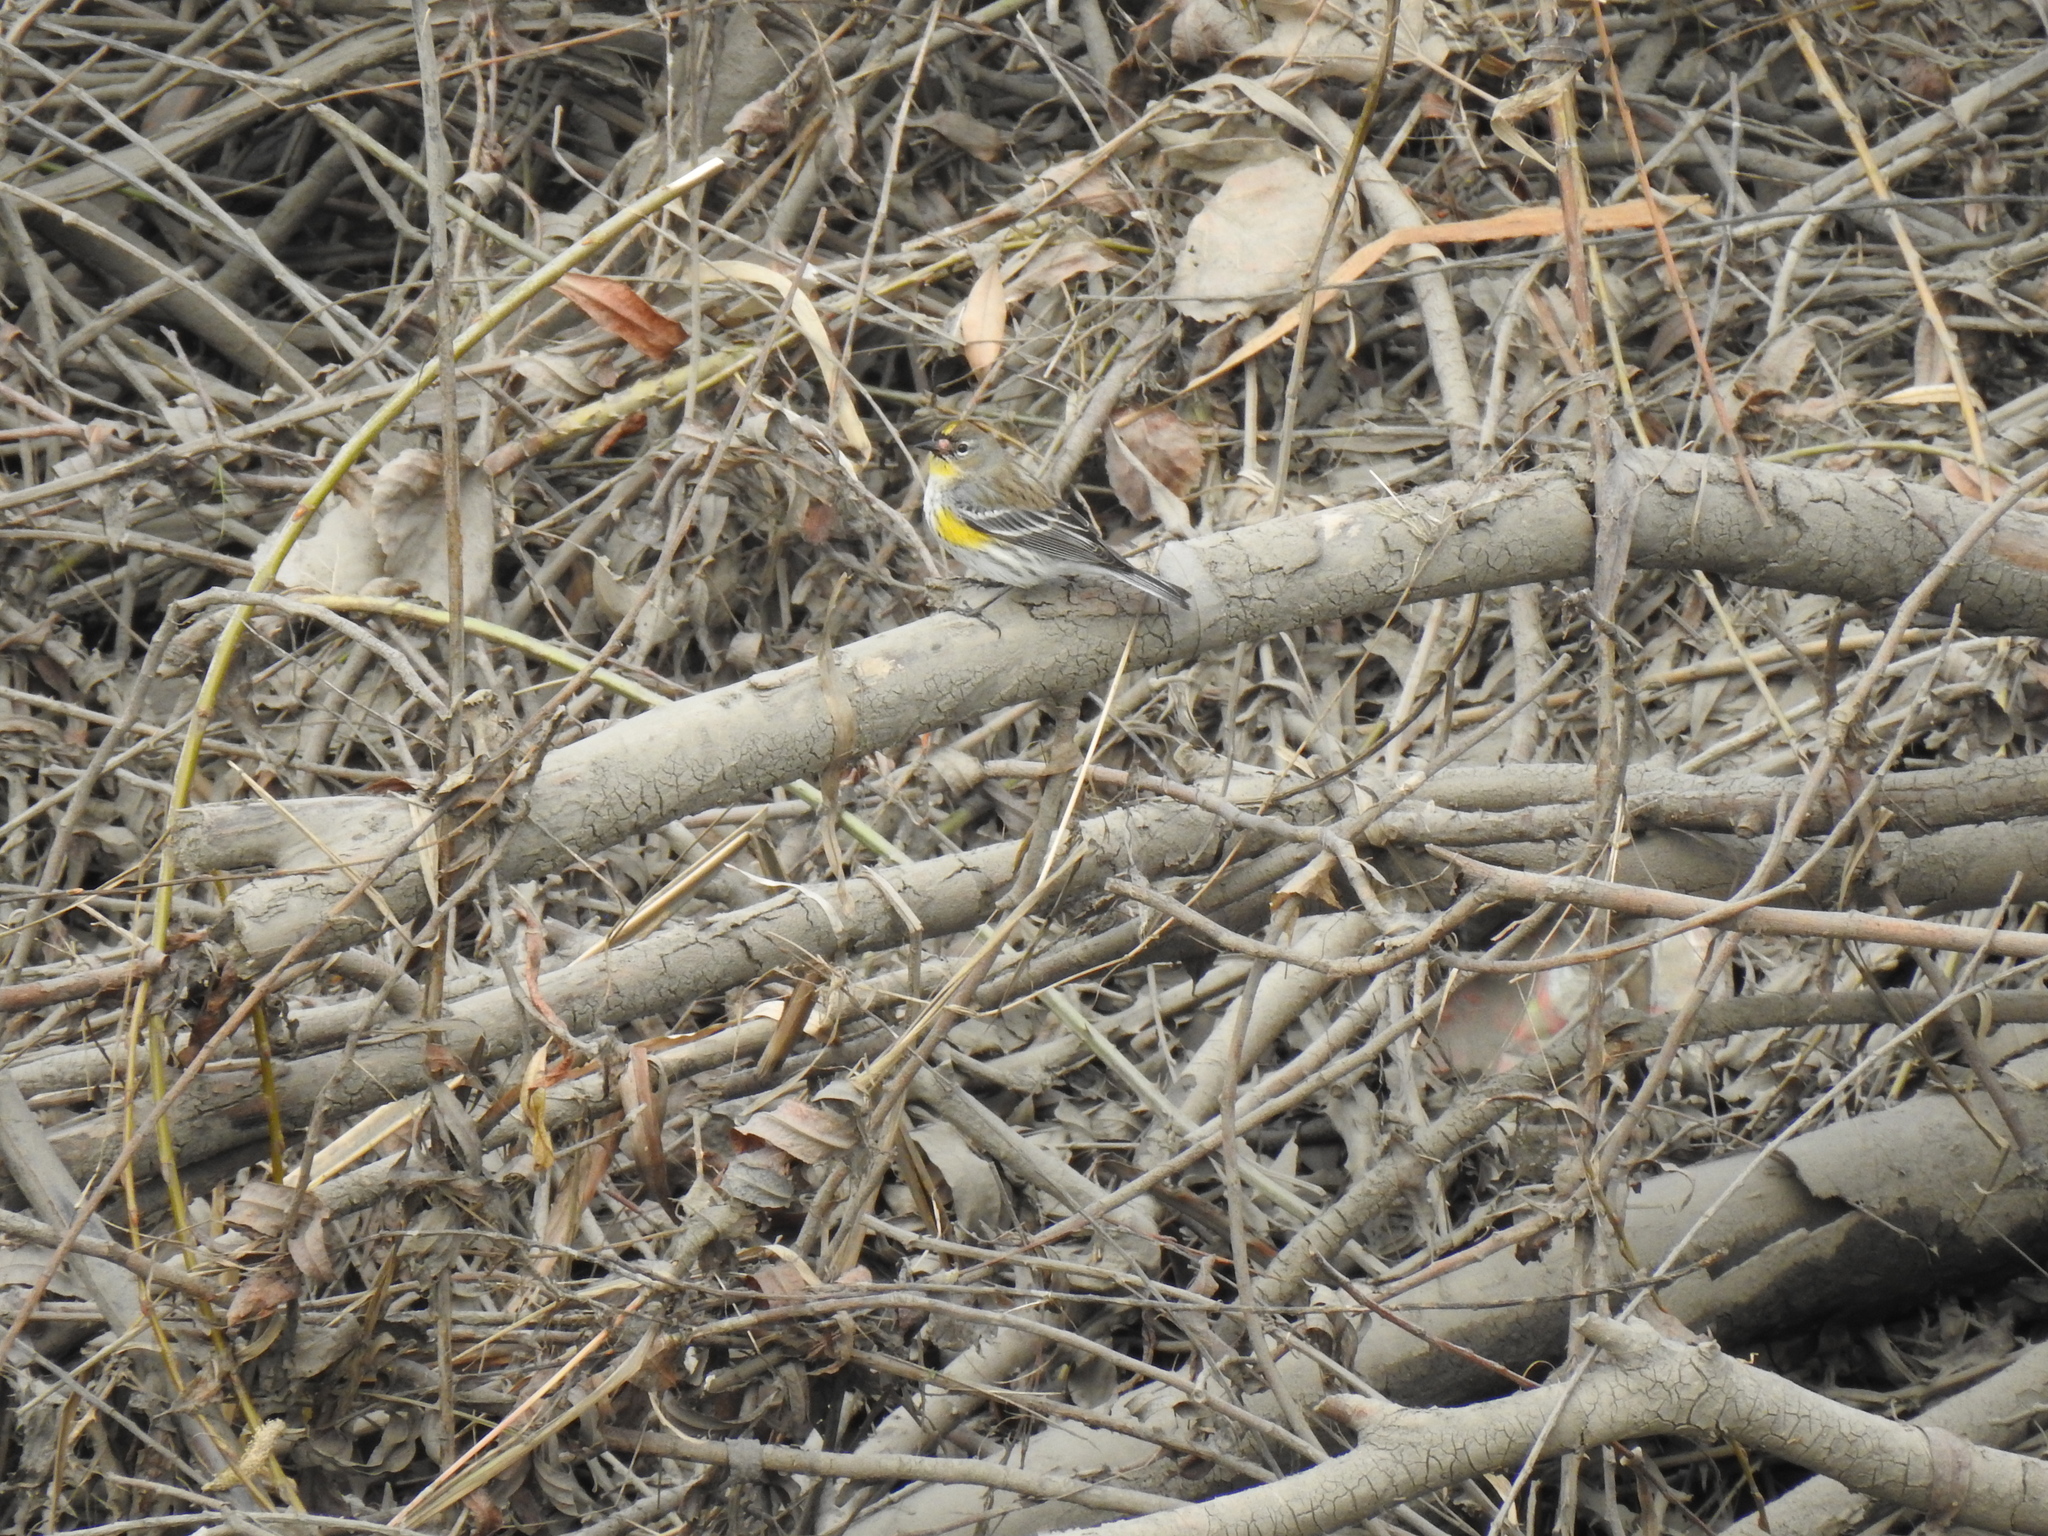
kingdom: Animalia
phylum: Chordata
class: Aves
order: Passeriformes
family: Parulidae
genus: Setophaga
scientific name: Setophaga coronata
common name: Myrtle warbler
